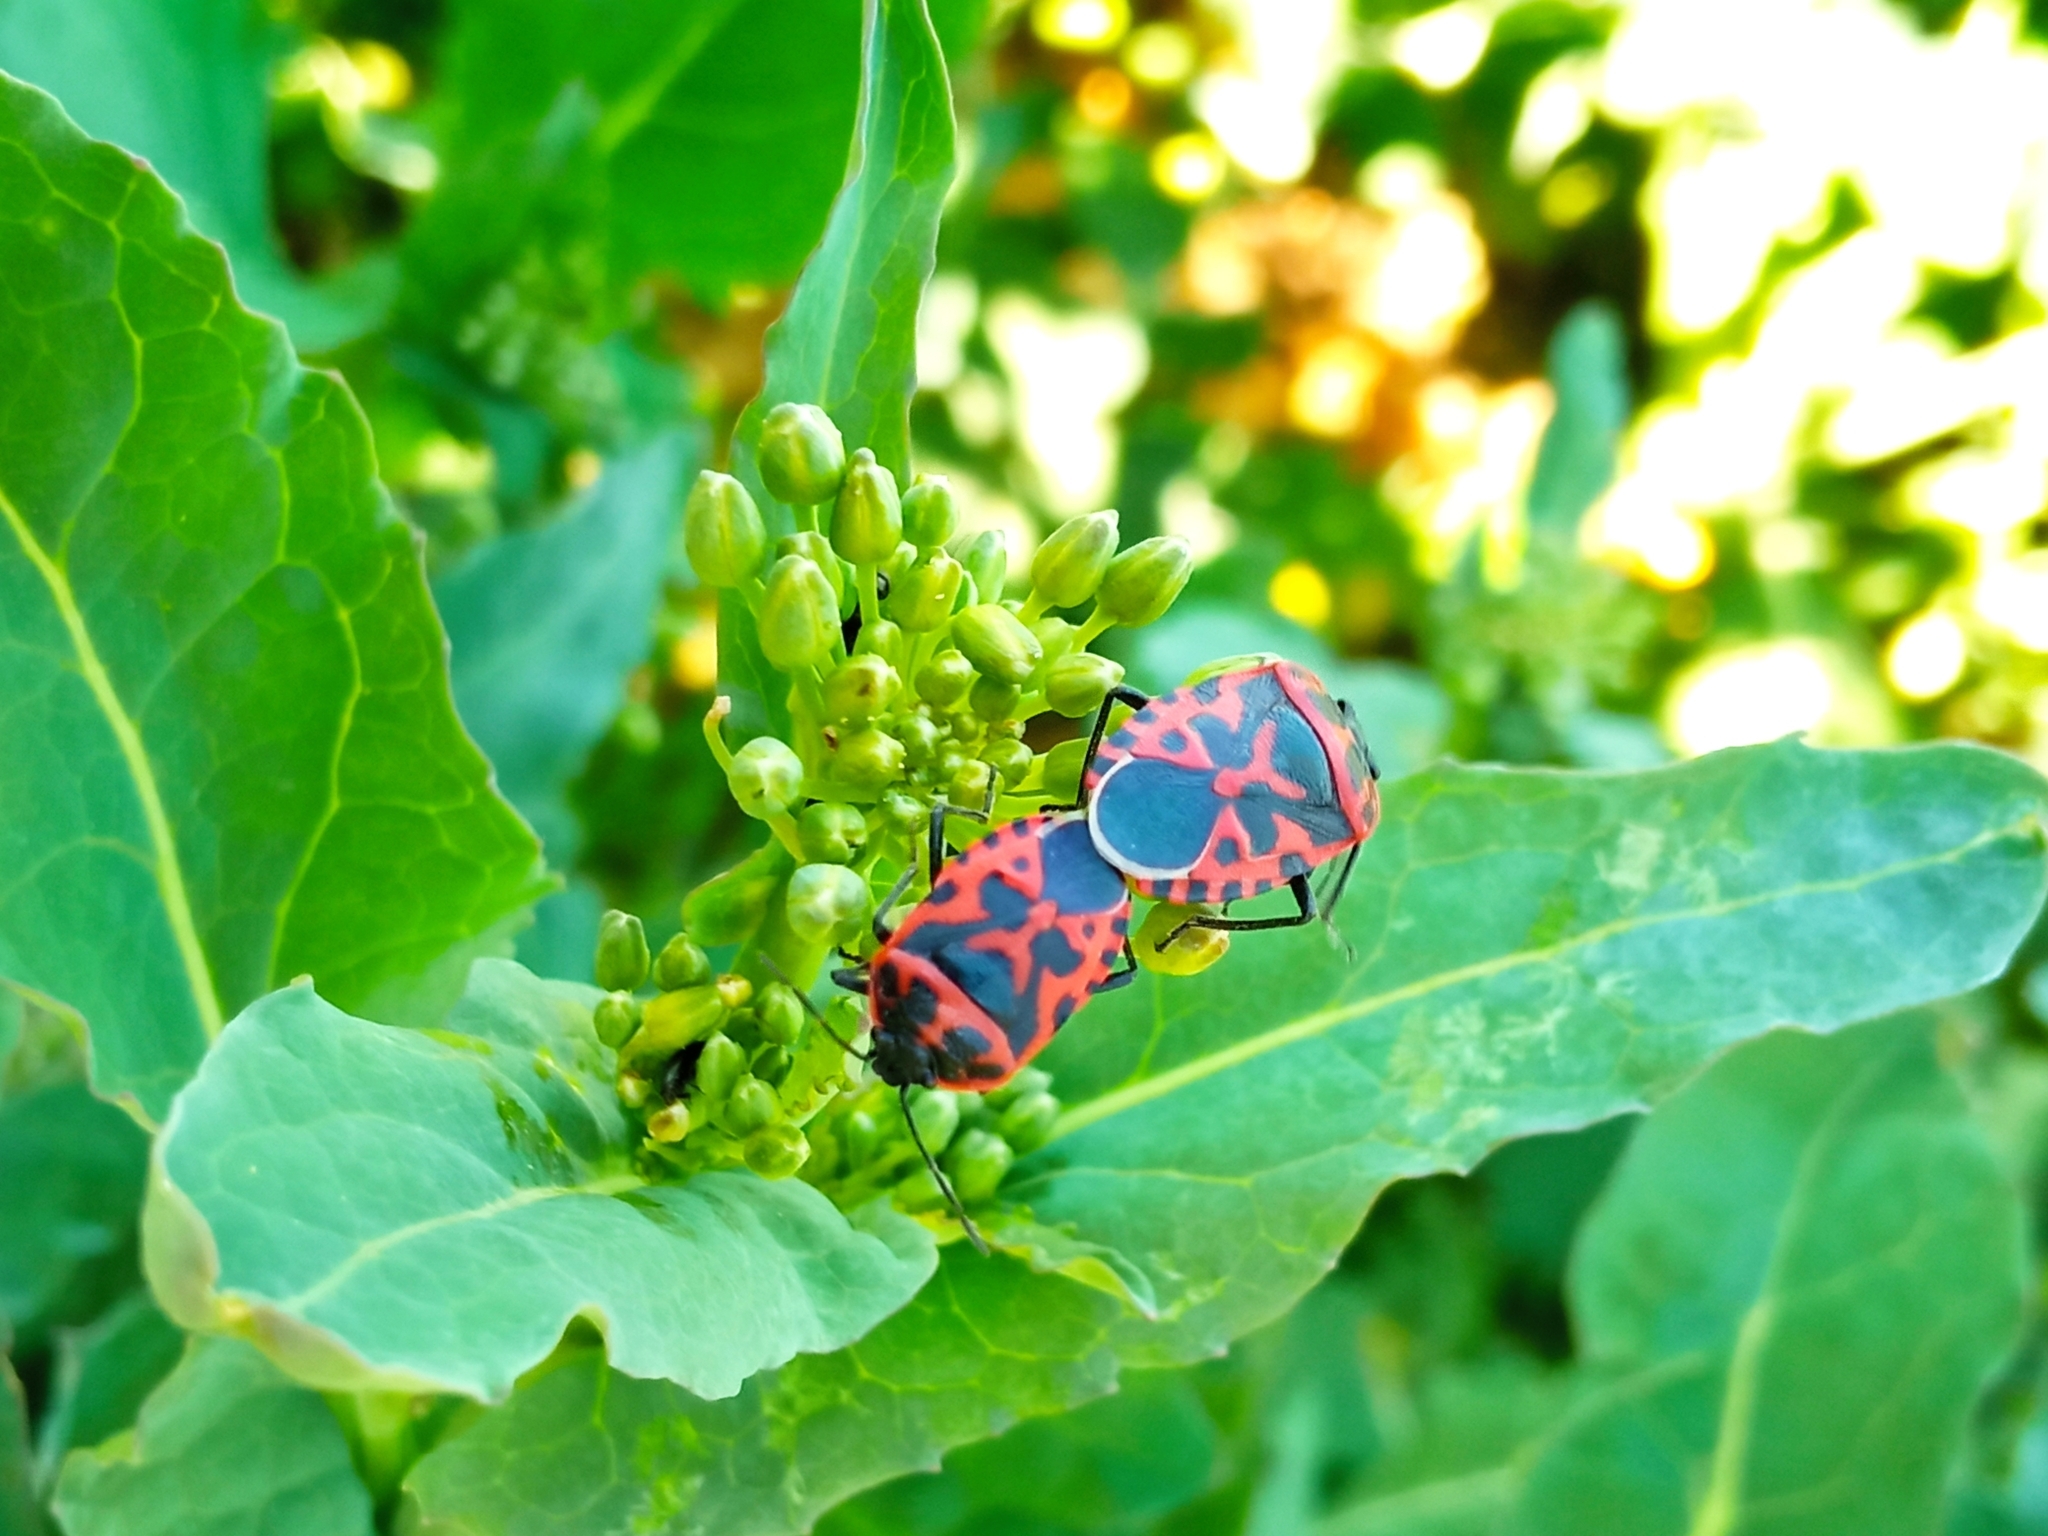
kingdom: Animalia
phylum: Arthropoda
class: Insecta
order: Hemiptera
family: Pentatomidae
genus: Eurydema
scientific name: Eurydema ventralis
